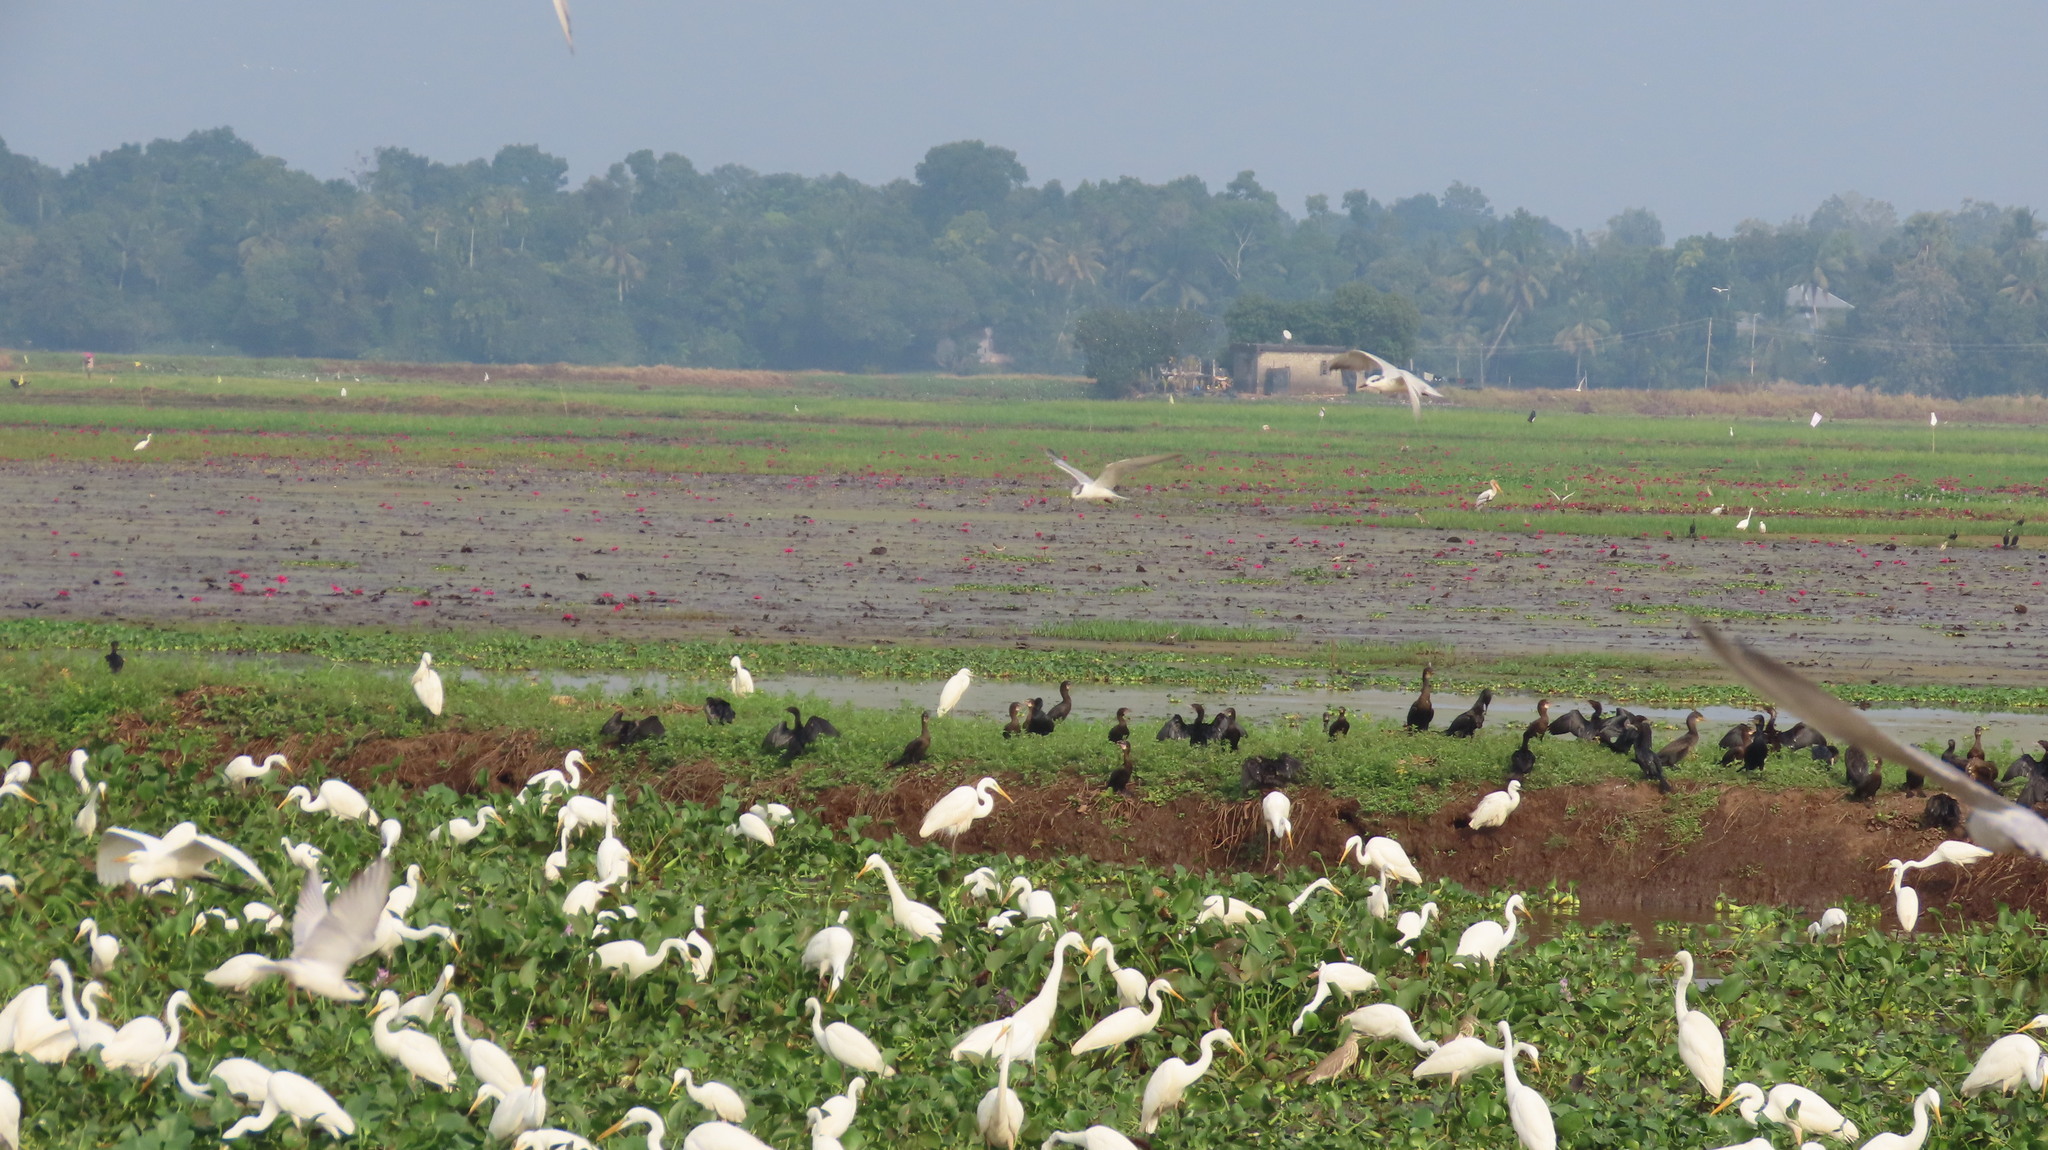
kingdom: Animalia
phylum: Chordata
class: Aves
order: Charadriiformes
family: Laridae
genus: Chlidonias
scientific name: Chlidonias hybrida
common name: Whiskered tern
